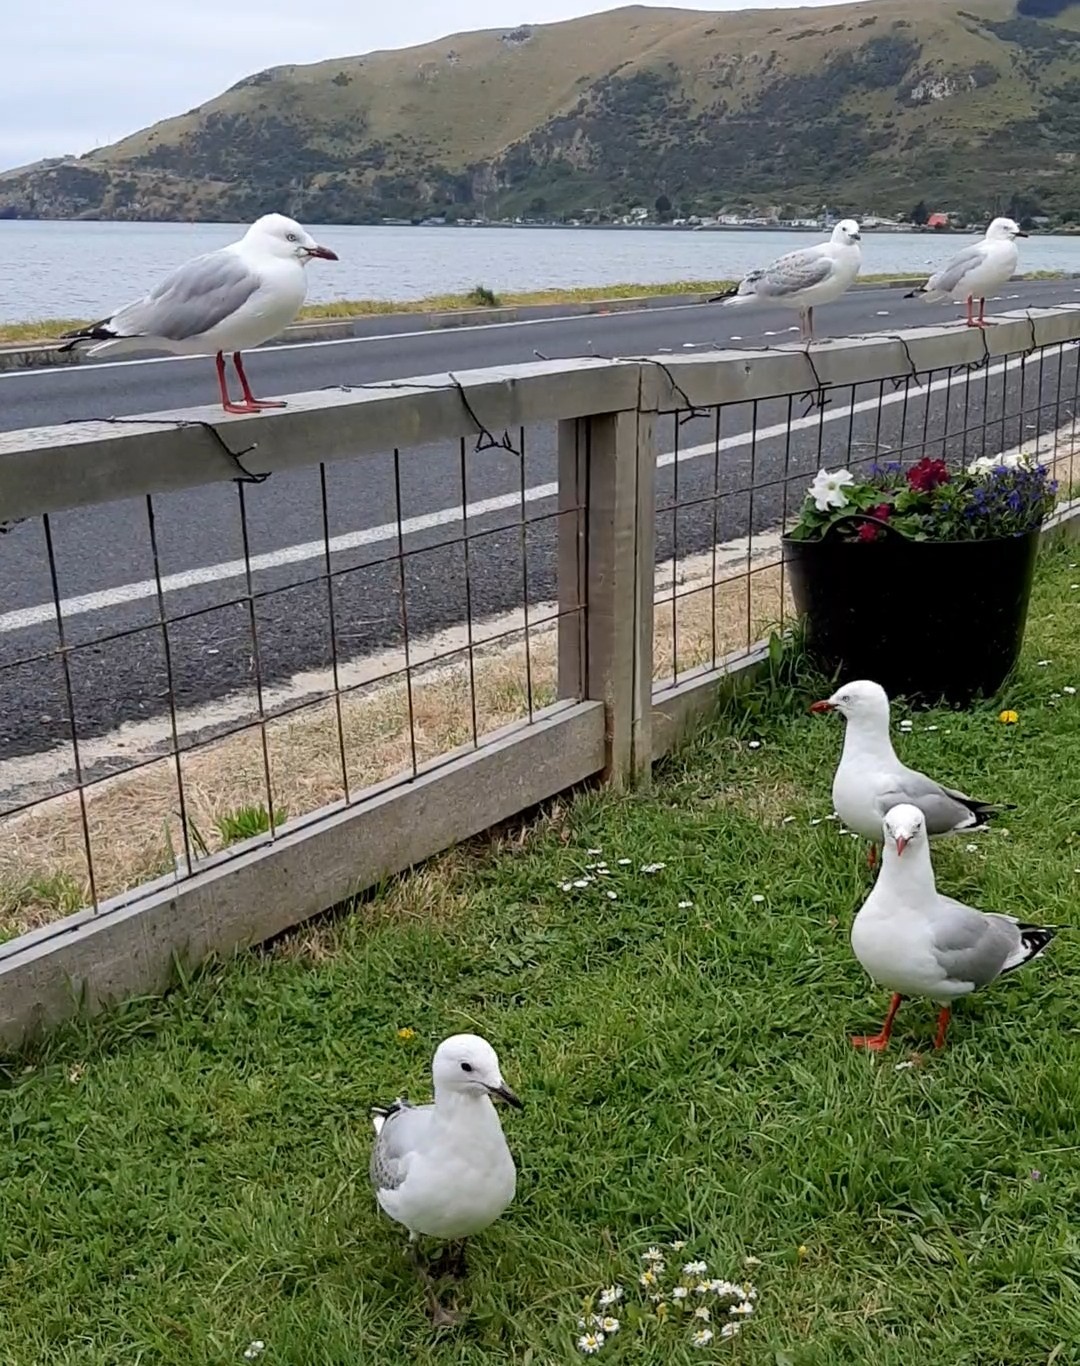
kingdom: Animalia
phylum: Chordata
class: Aves
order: Charadriiformes
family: Laridae
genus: Chroicocephalus
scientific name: Chroicocephalus novaehollandiae
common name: Silver gull
